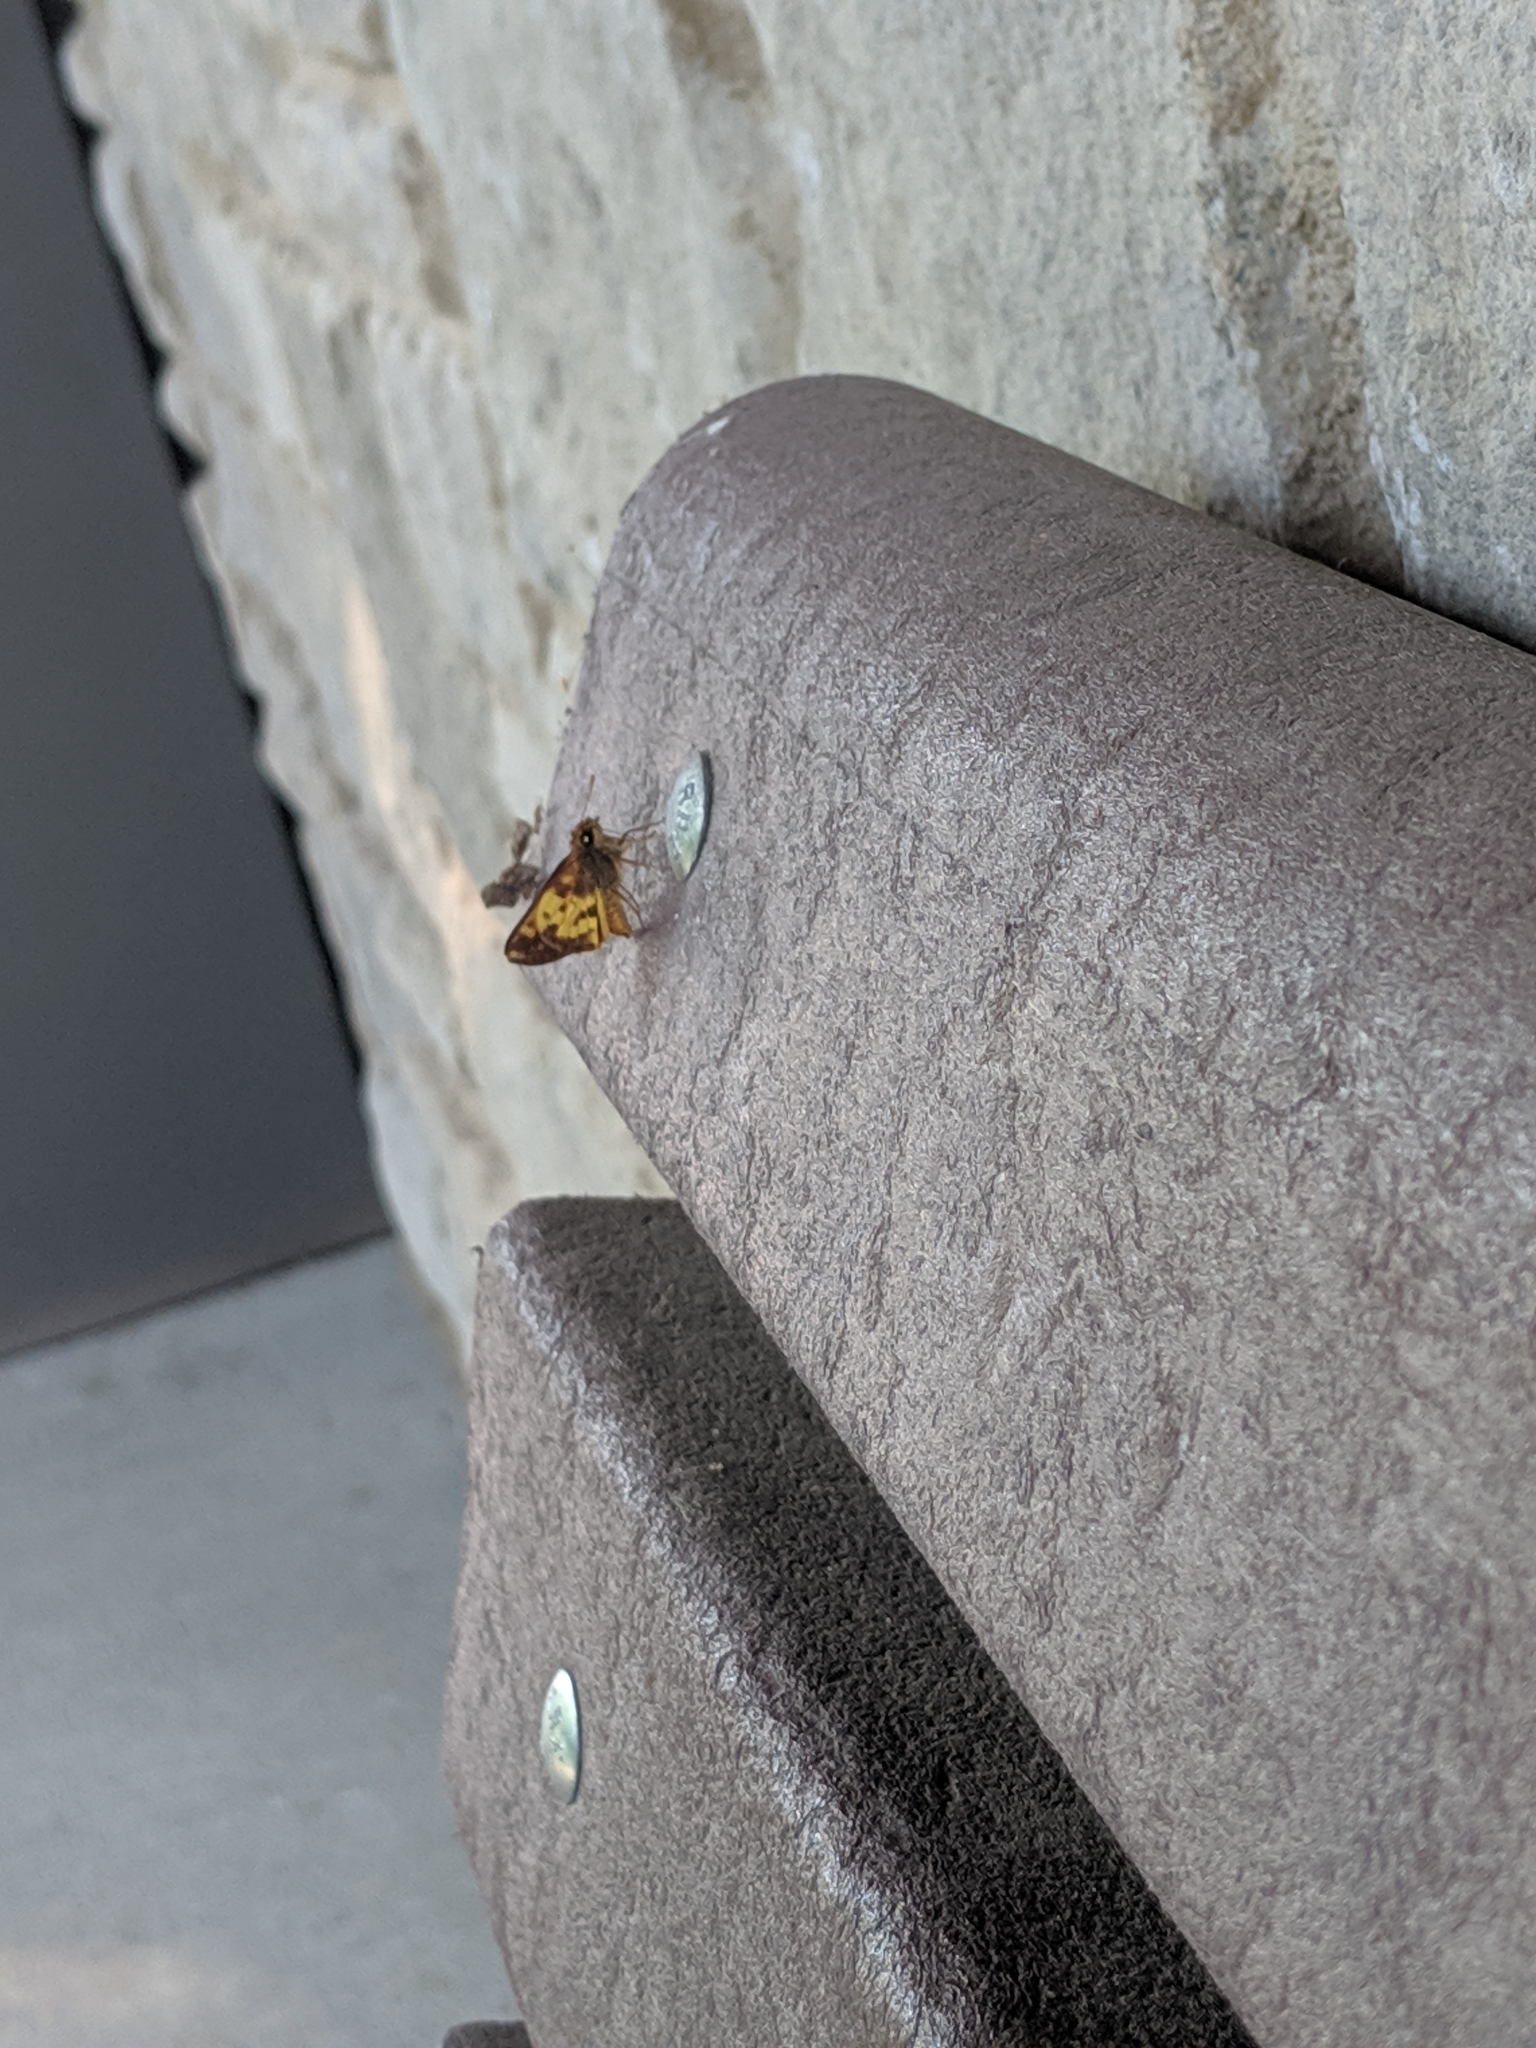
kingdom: Animalia
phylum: Arthropoda
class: Insecta
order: Lepidoptera
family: Hesperiidae
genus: Lon
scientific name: Lon zabulon
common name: Zabulon skipper
